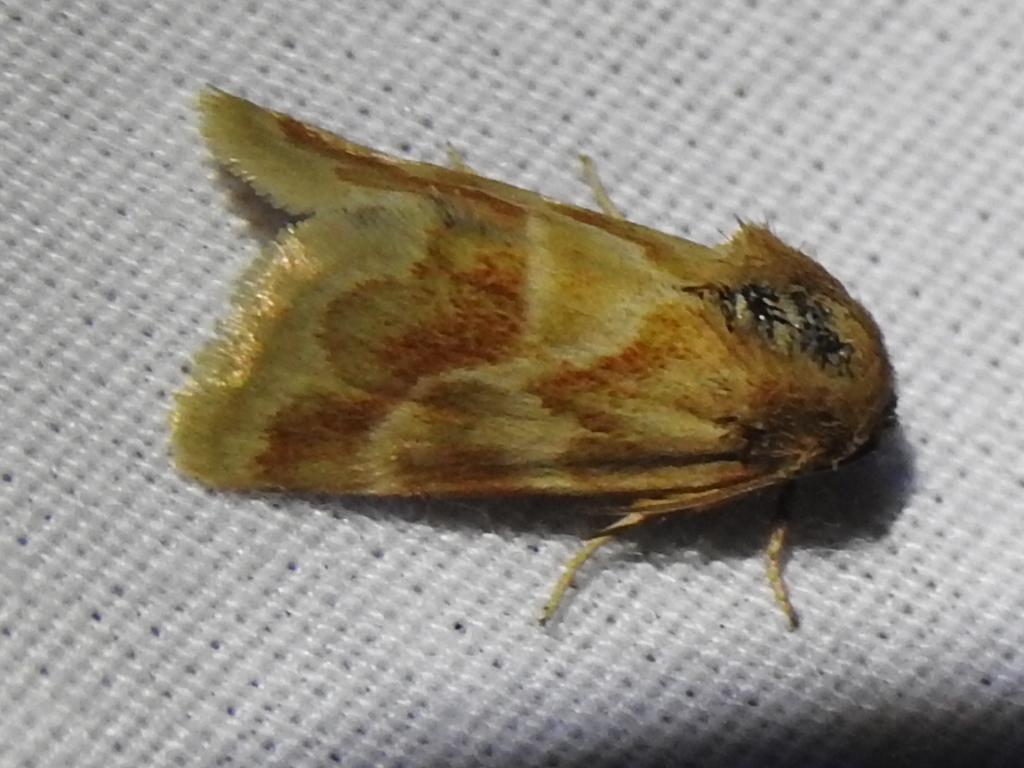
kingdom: Animalia
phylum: Arthropoda
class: Insecta
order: Lepidoptera
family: Noctuidae
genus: Schinia
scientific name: Schinia lynx
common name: Lynx flower moth
